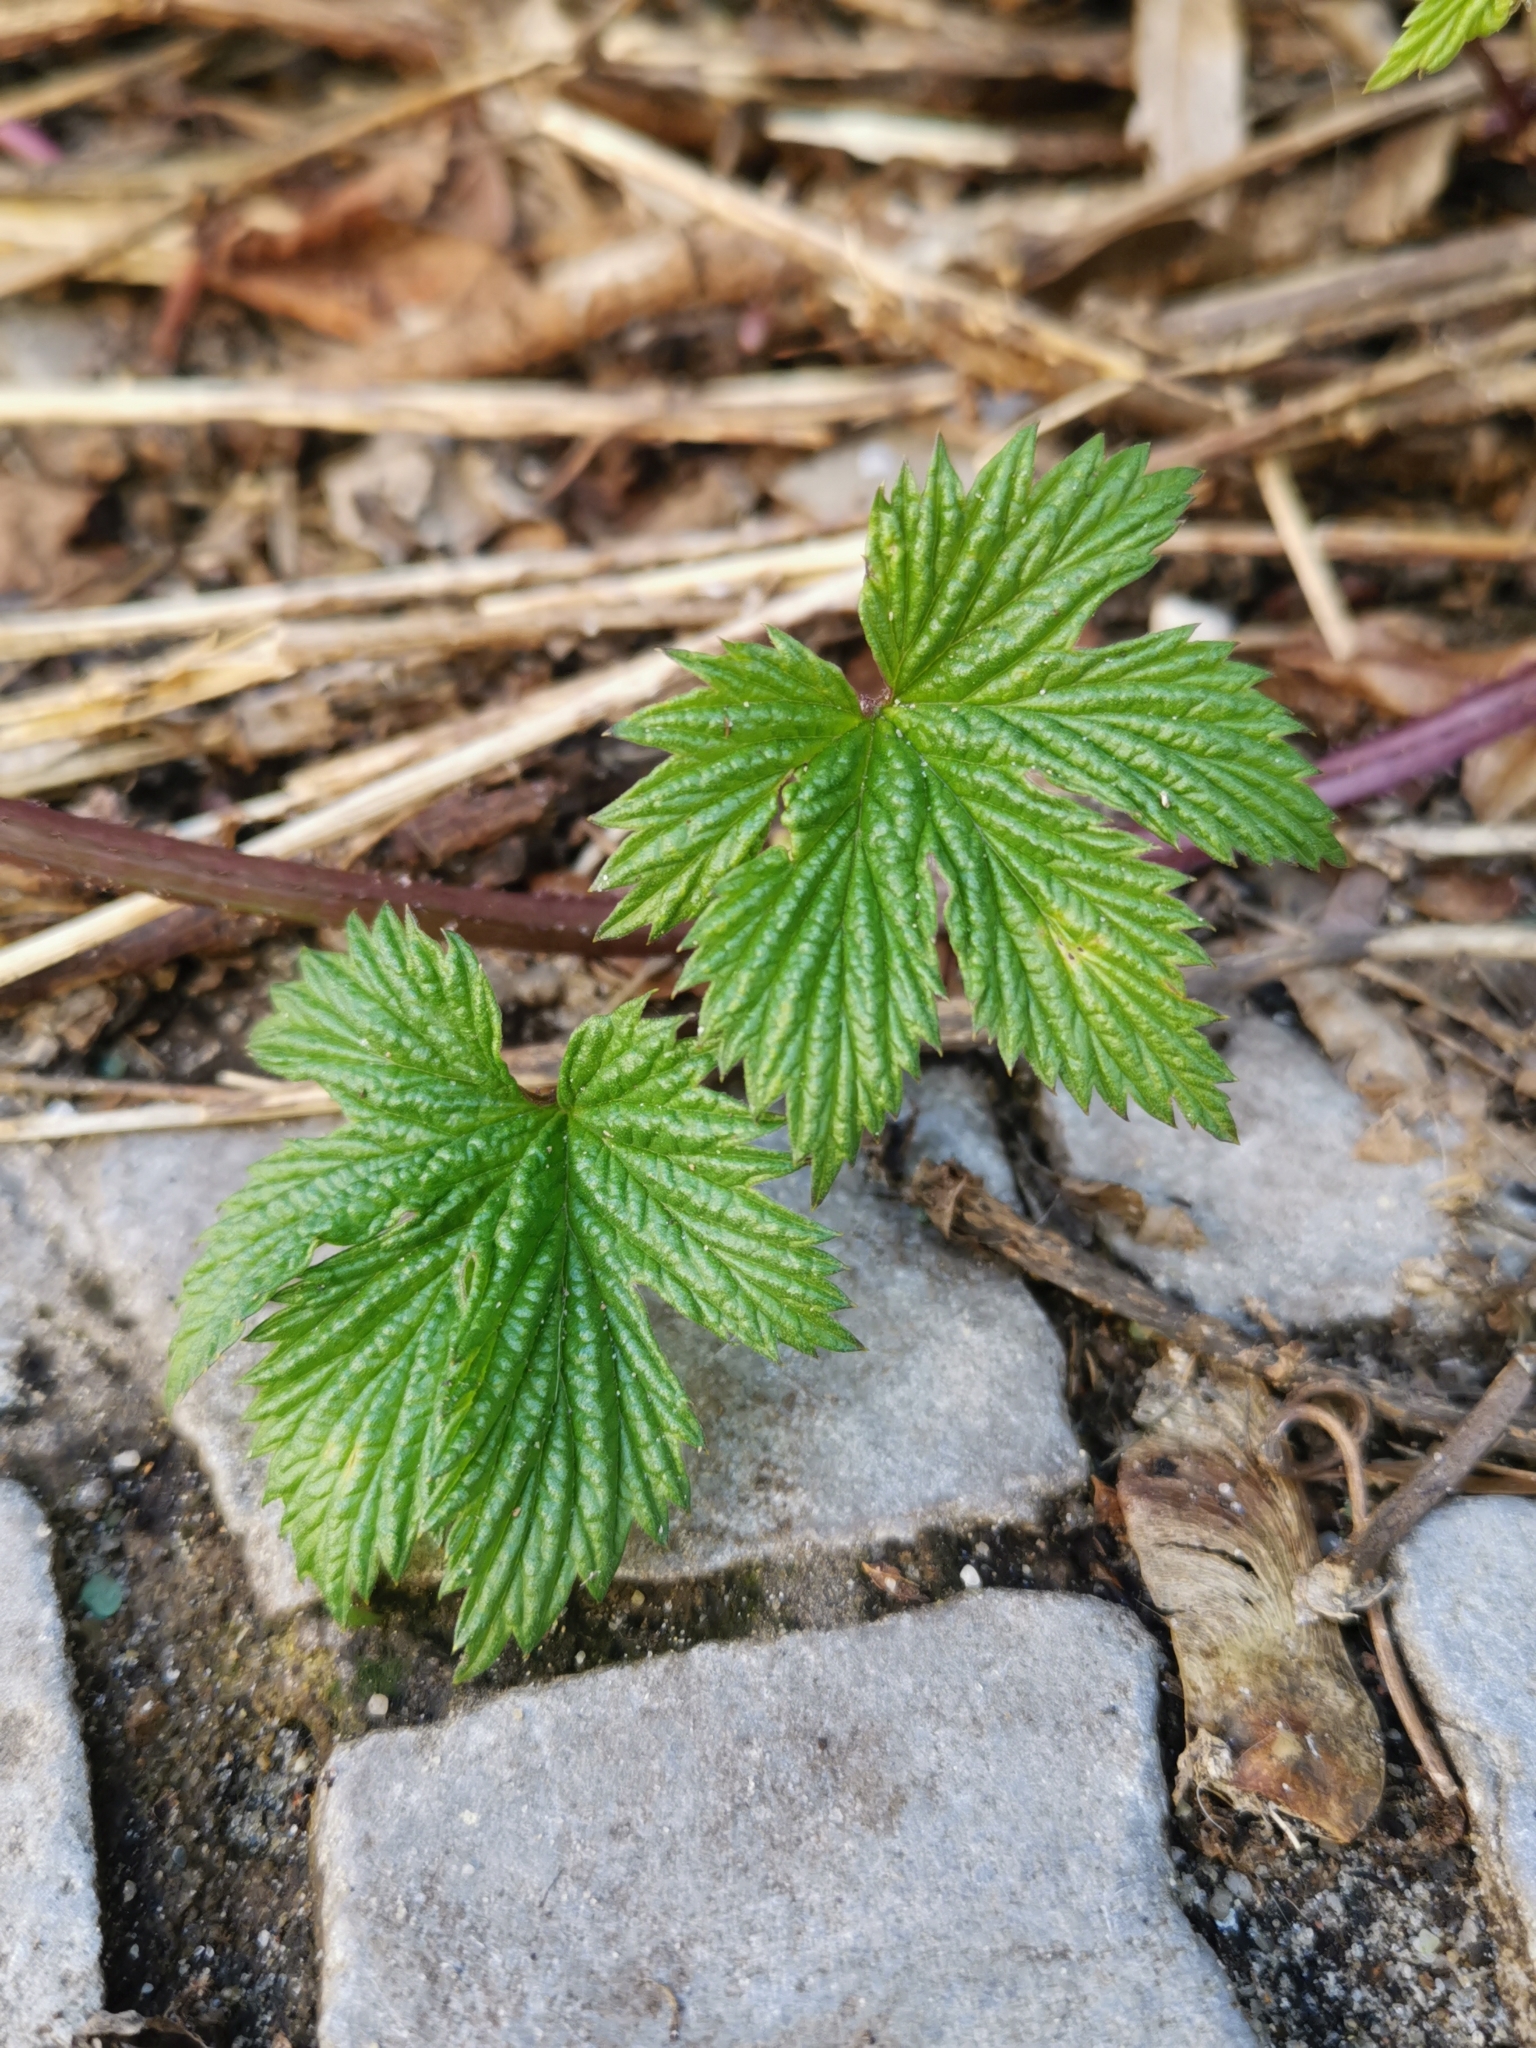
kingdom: Plantae
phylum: Tracheophyta
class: Magnoliopsida
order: Rosales
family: Cannabaceae
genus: Humulus
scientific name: Humulus lupulus
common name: Hop
